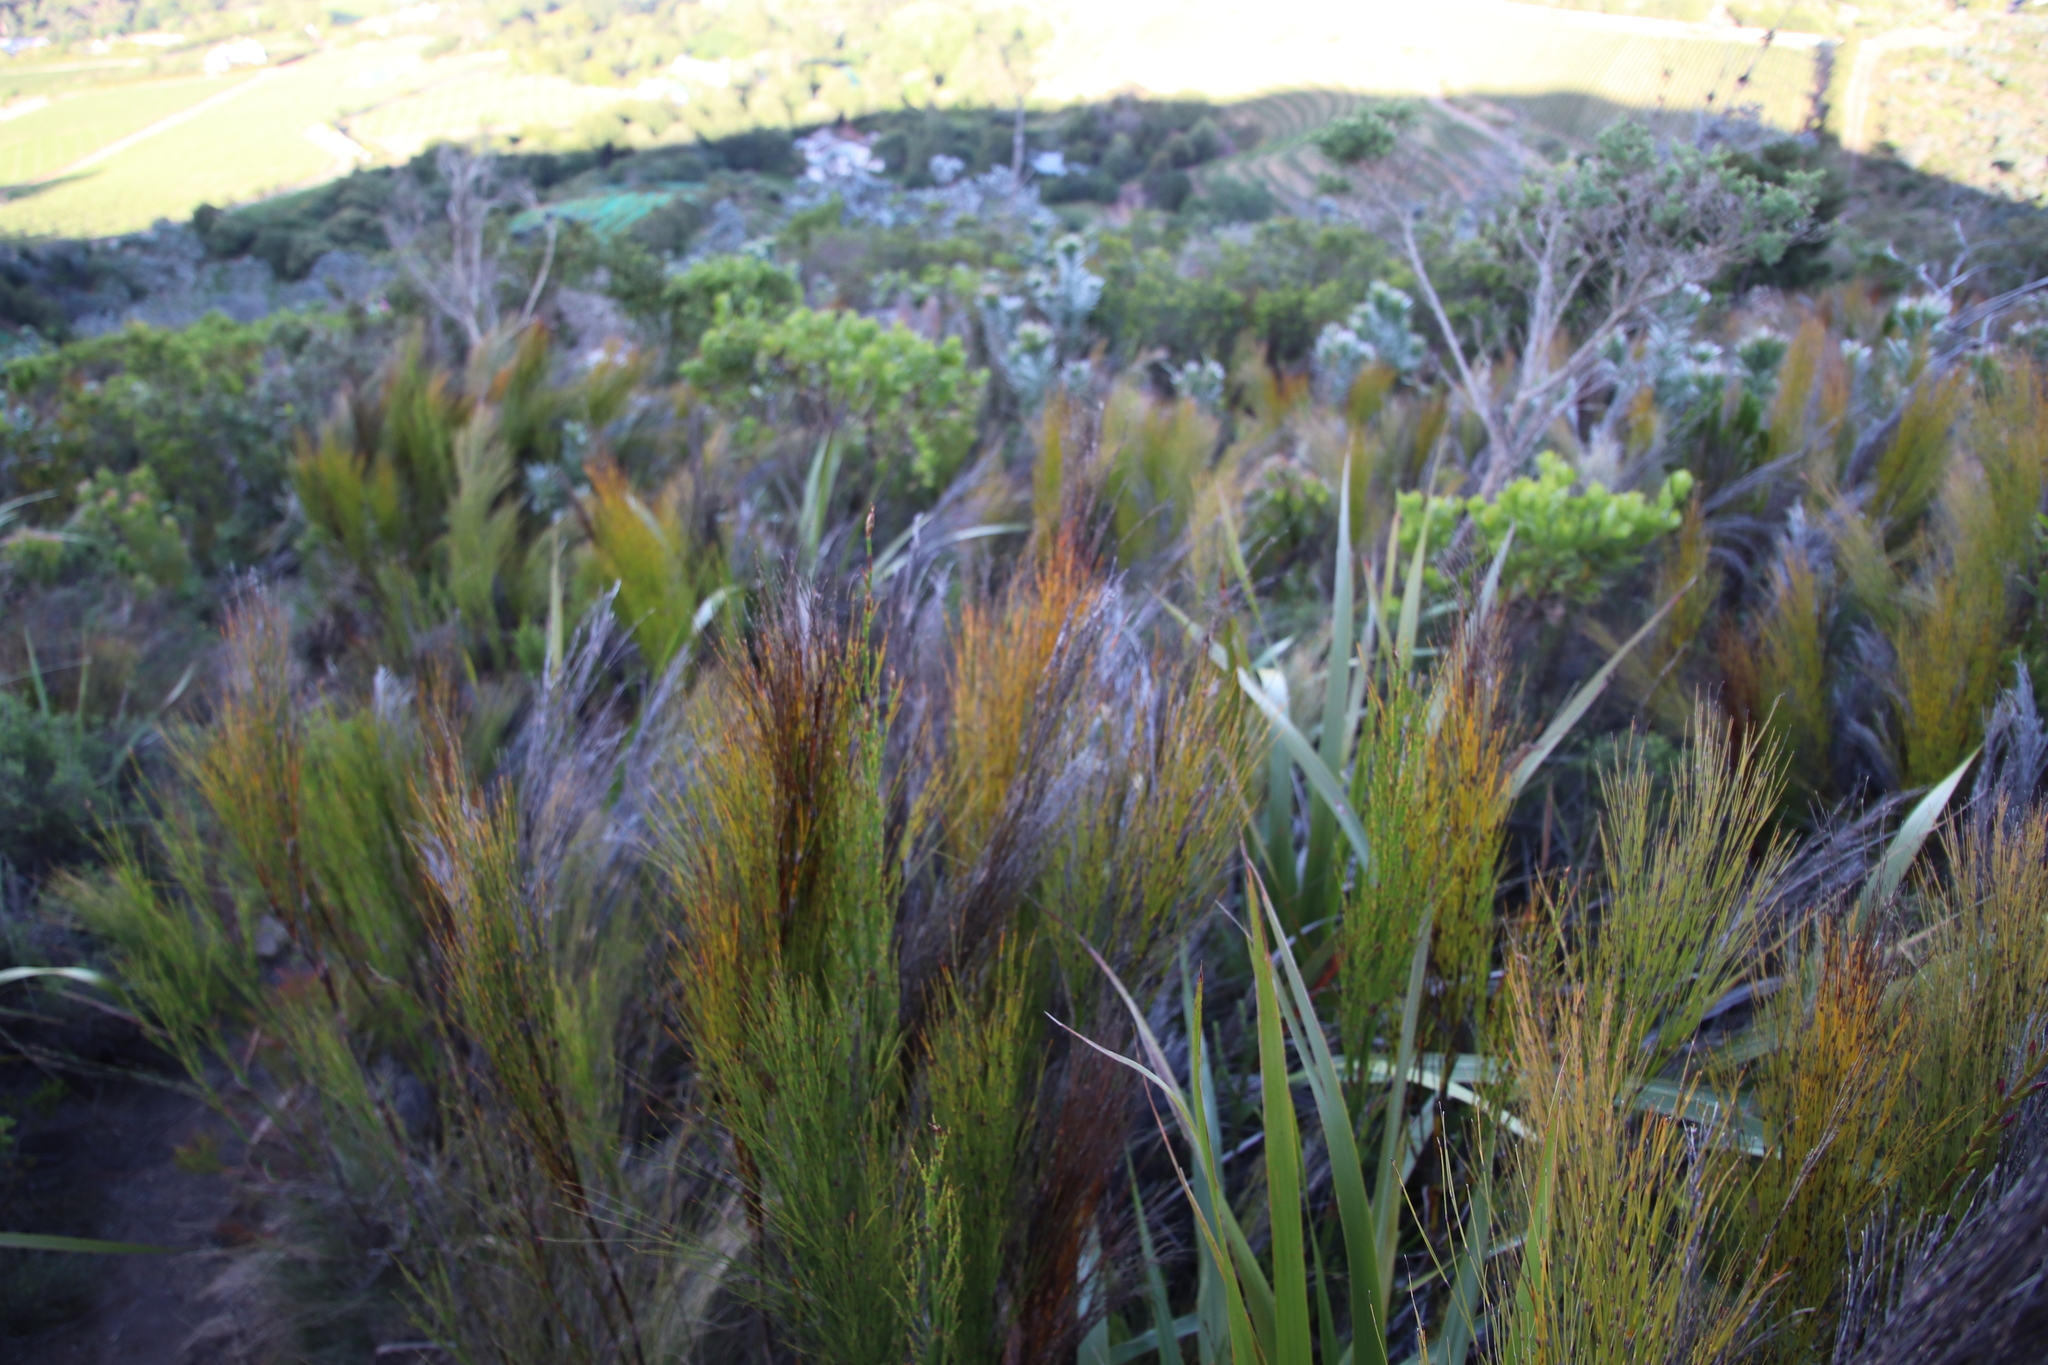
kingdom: Plantae
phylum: Tracheophyta
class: Liliopsida
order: Poales
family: Restionaceae
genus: Cannomois
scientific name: Cannomois virgata
